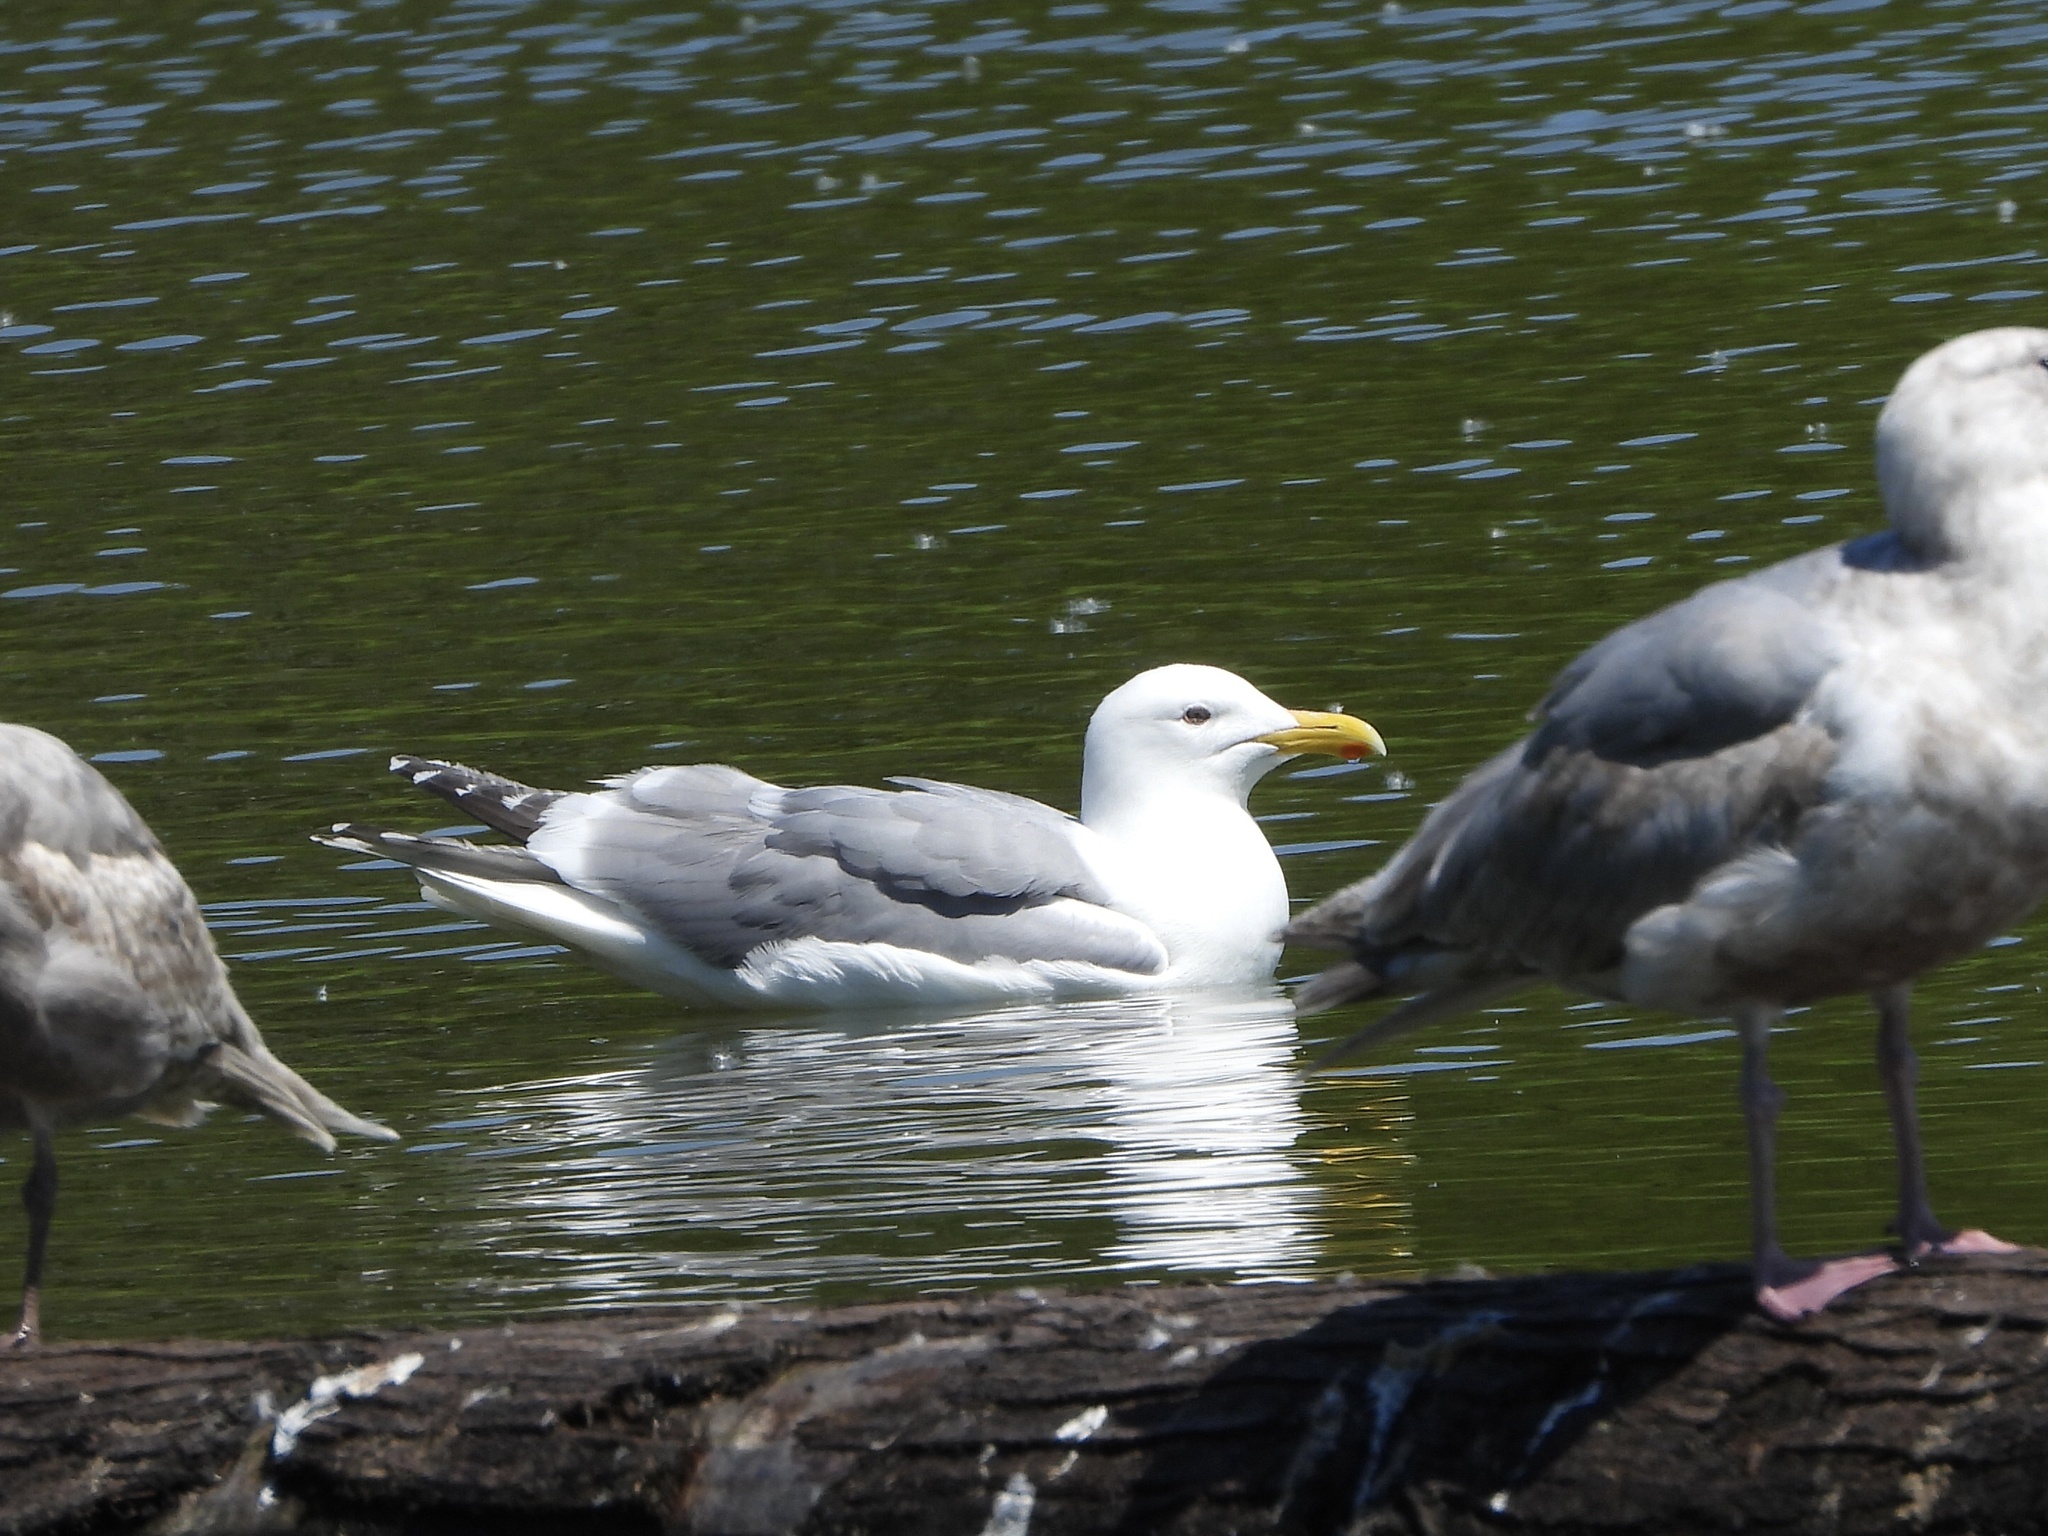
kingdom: Animalia
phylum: Chordata
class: Aves
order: Charadriiformes
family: Laridae
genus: Larus
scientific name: Larus
